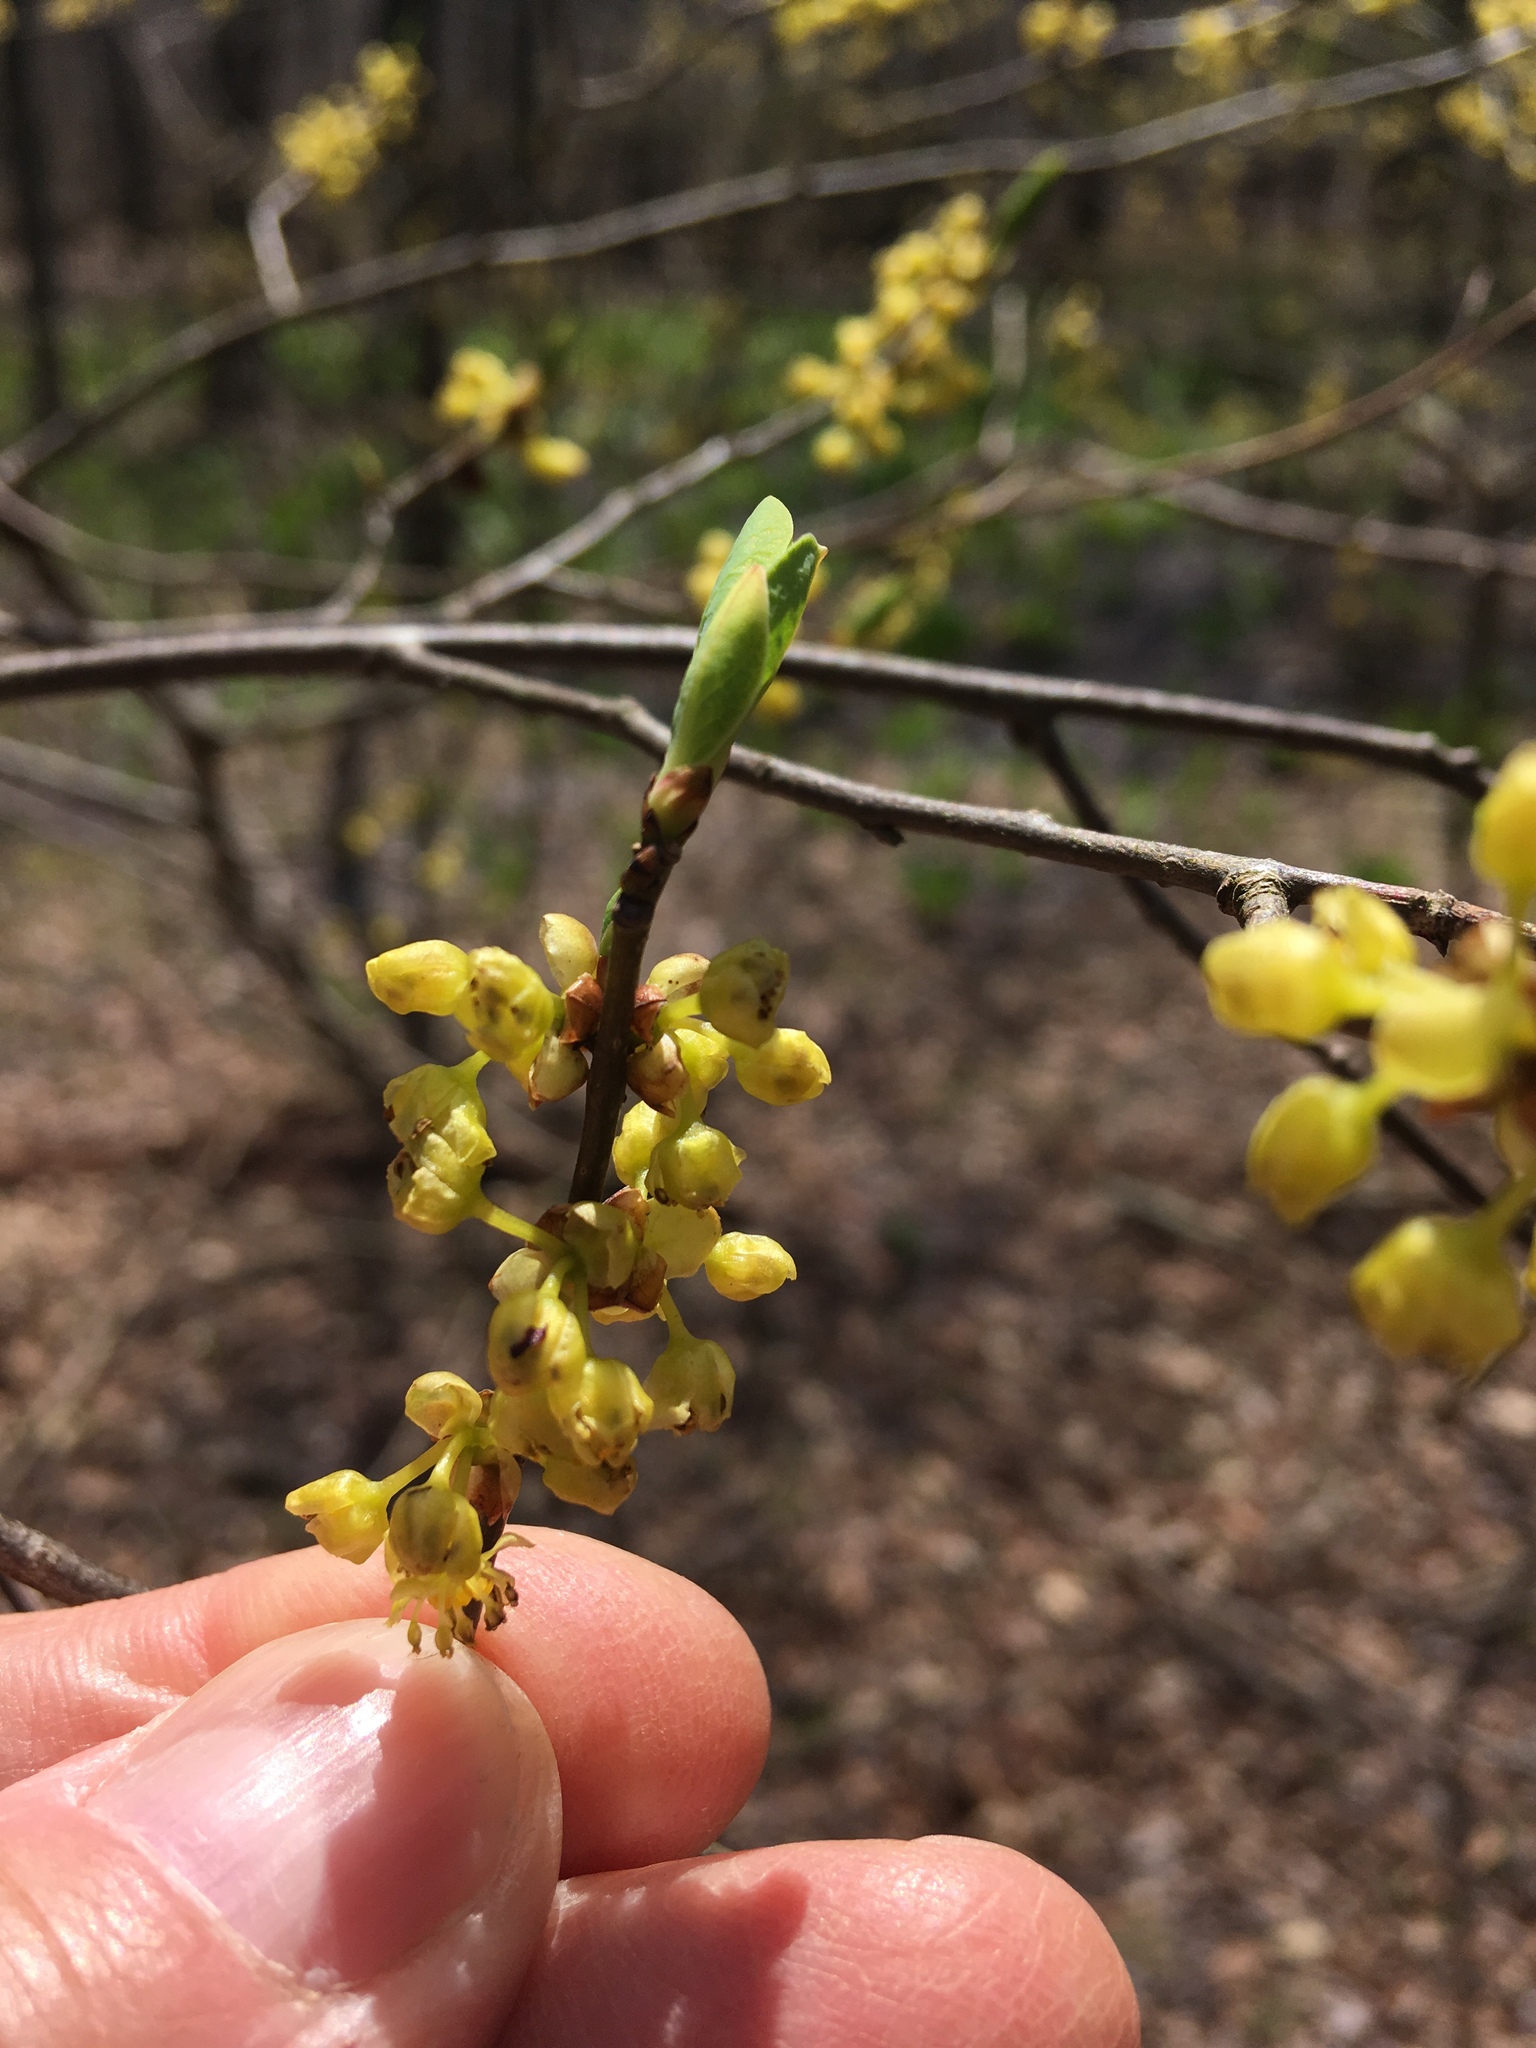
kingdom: Plantae
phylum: Tracheophyta
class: Magnoliopsida
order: Laurales
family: Lauraceae
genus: Lindera
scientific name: Lindera benzoin
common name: Spicebush
